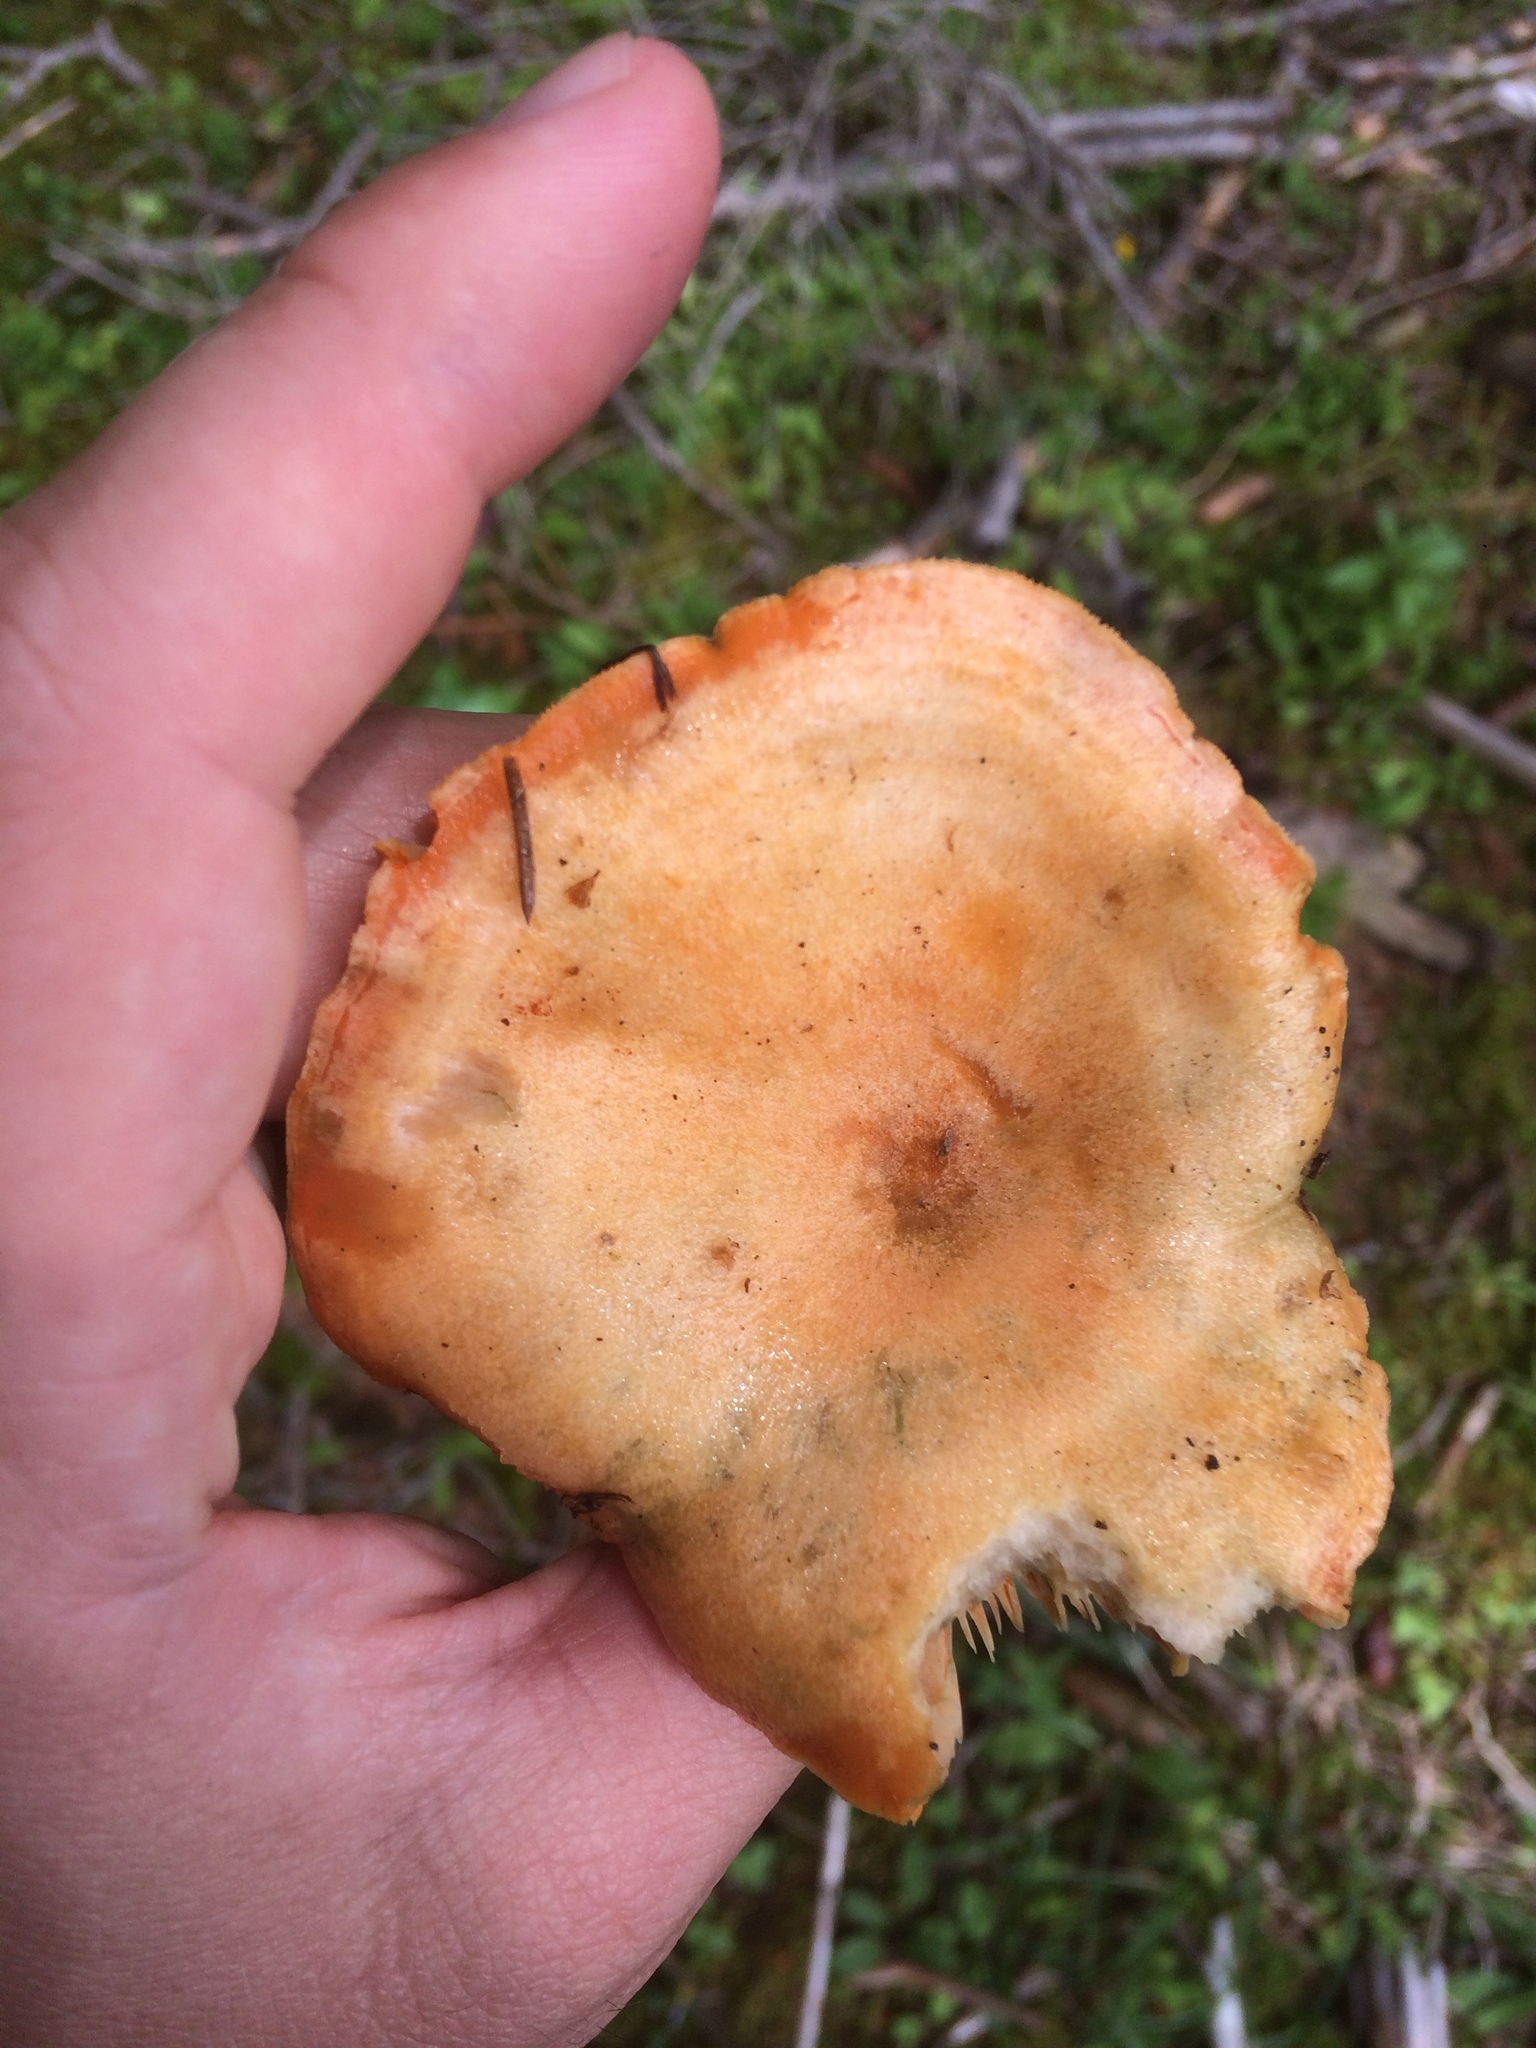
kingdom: Fungi
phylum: Basidiomycota
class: Agaricomycetes
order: Russulales
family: Russulaceae
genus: Lactarius
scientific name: Lactarius deterrimus
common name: False saffron milkcap
